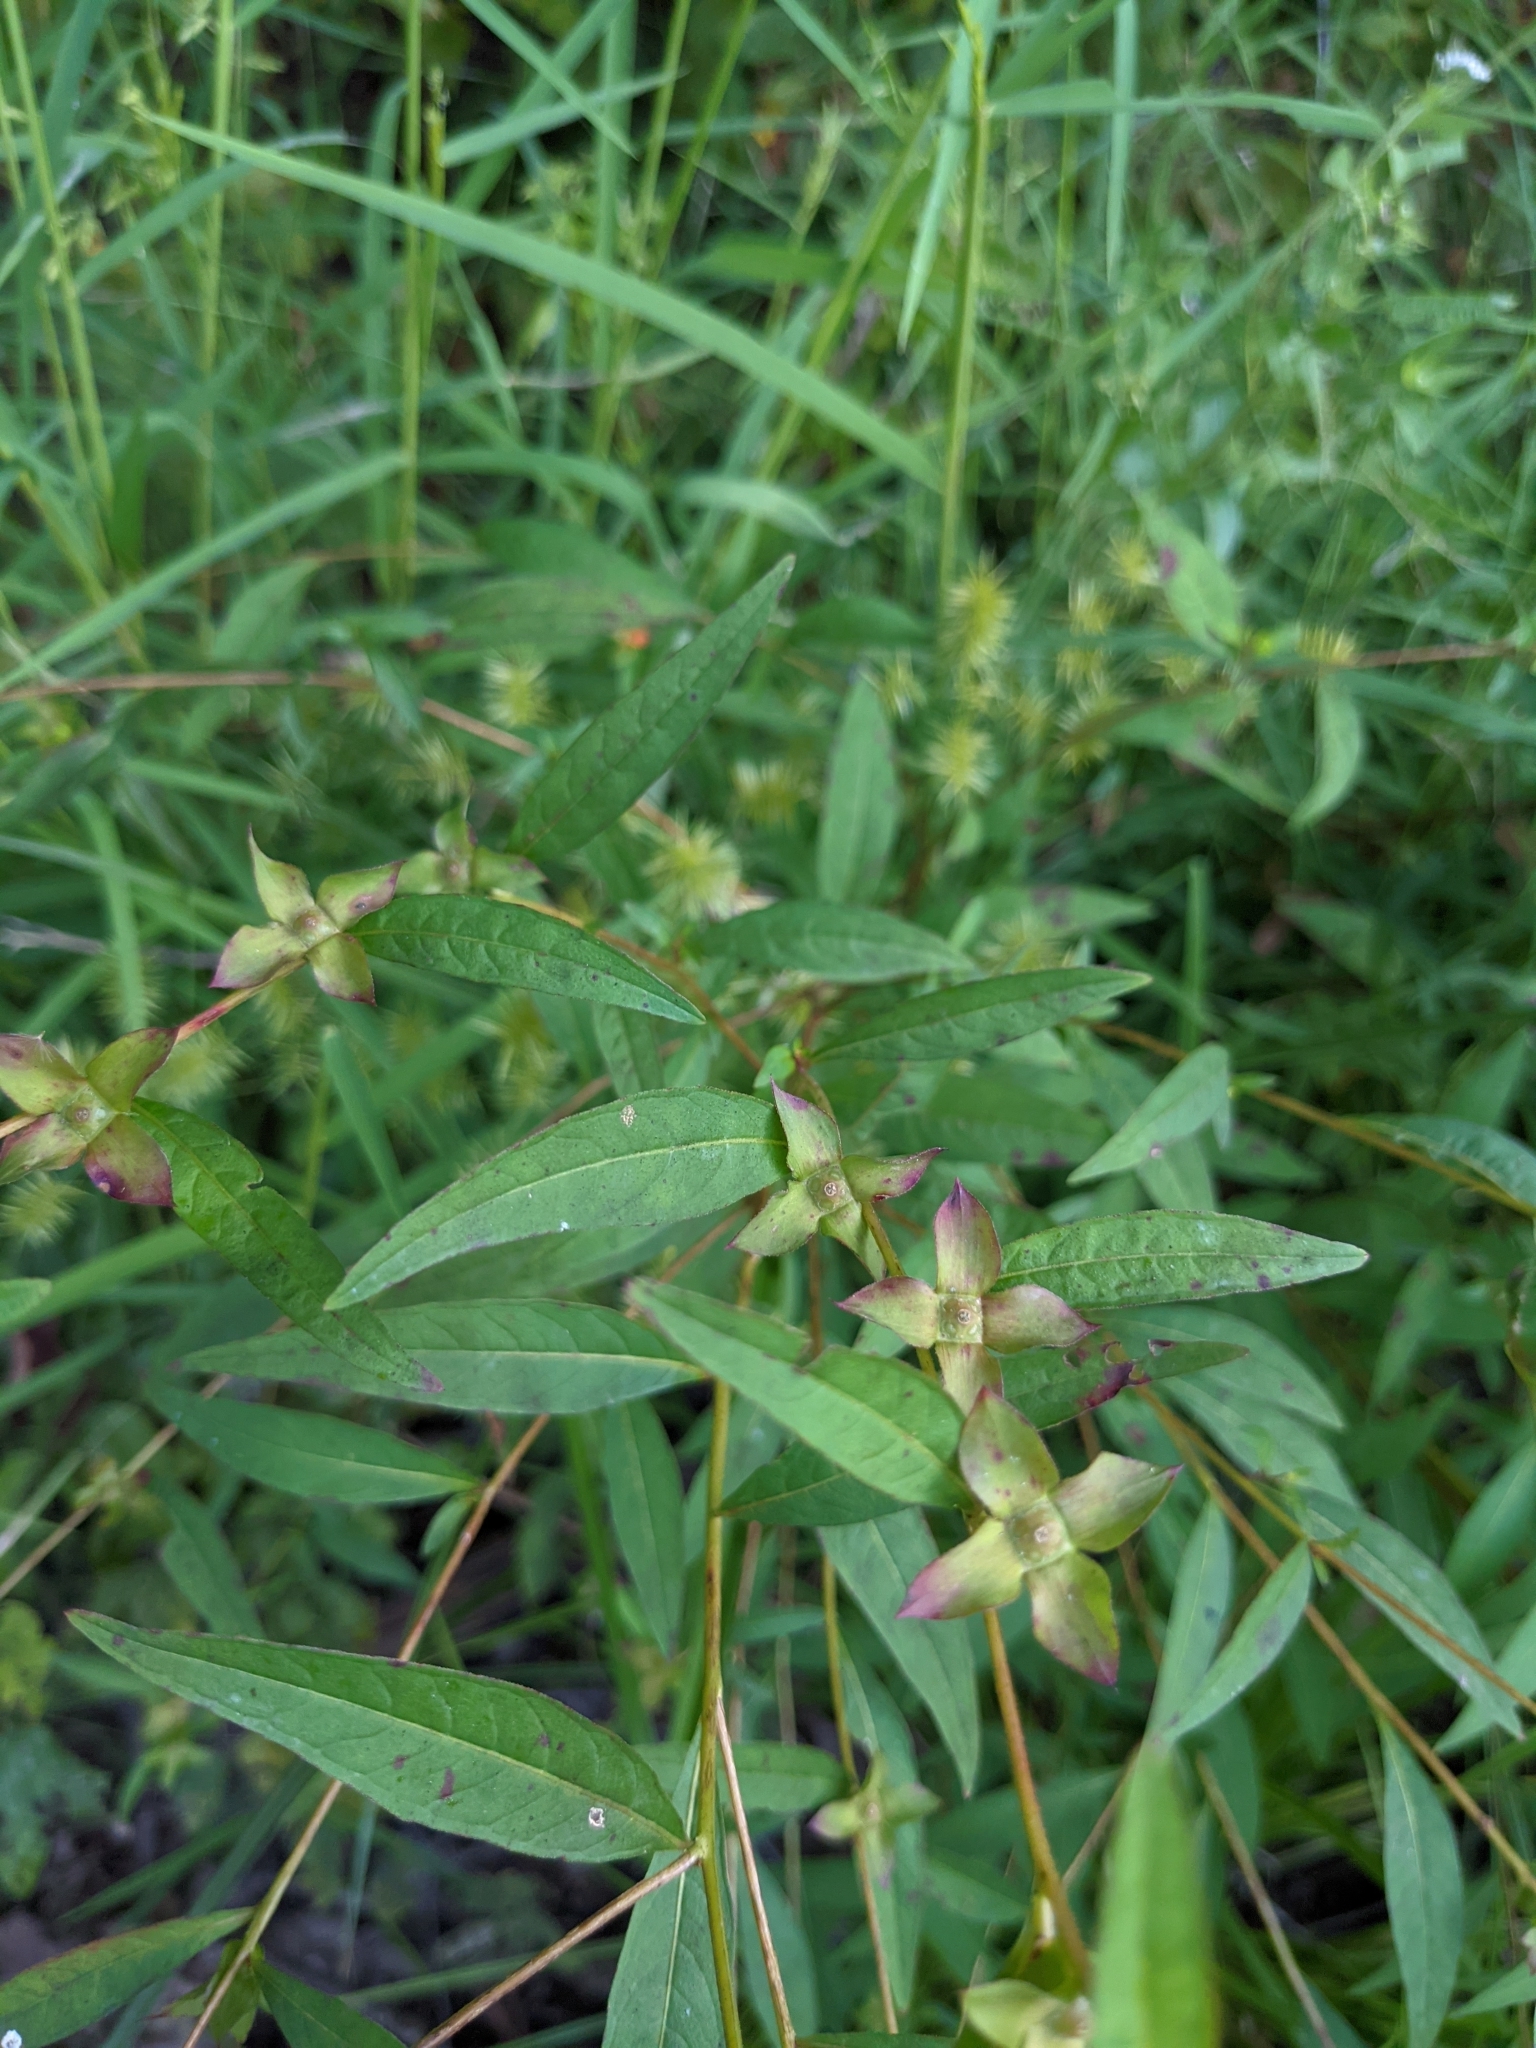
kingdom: Plantae
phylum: Tracheophyta
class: Magnoliopsida
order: Myrtales
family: Onagraceae
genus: Ludwigia
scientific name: Ludwigia alternifolia
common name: Rattlebox
